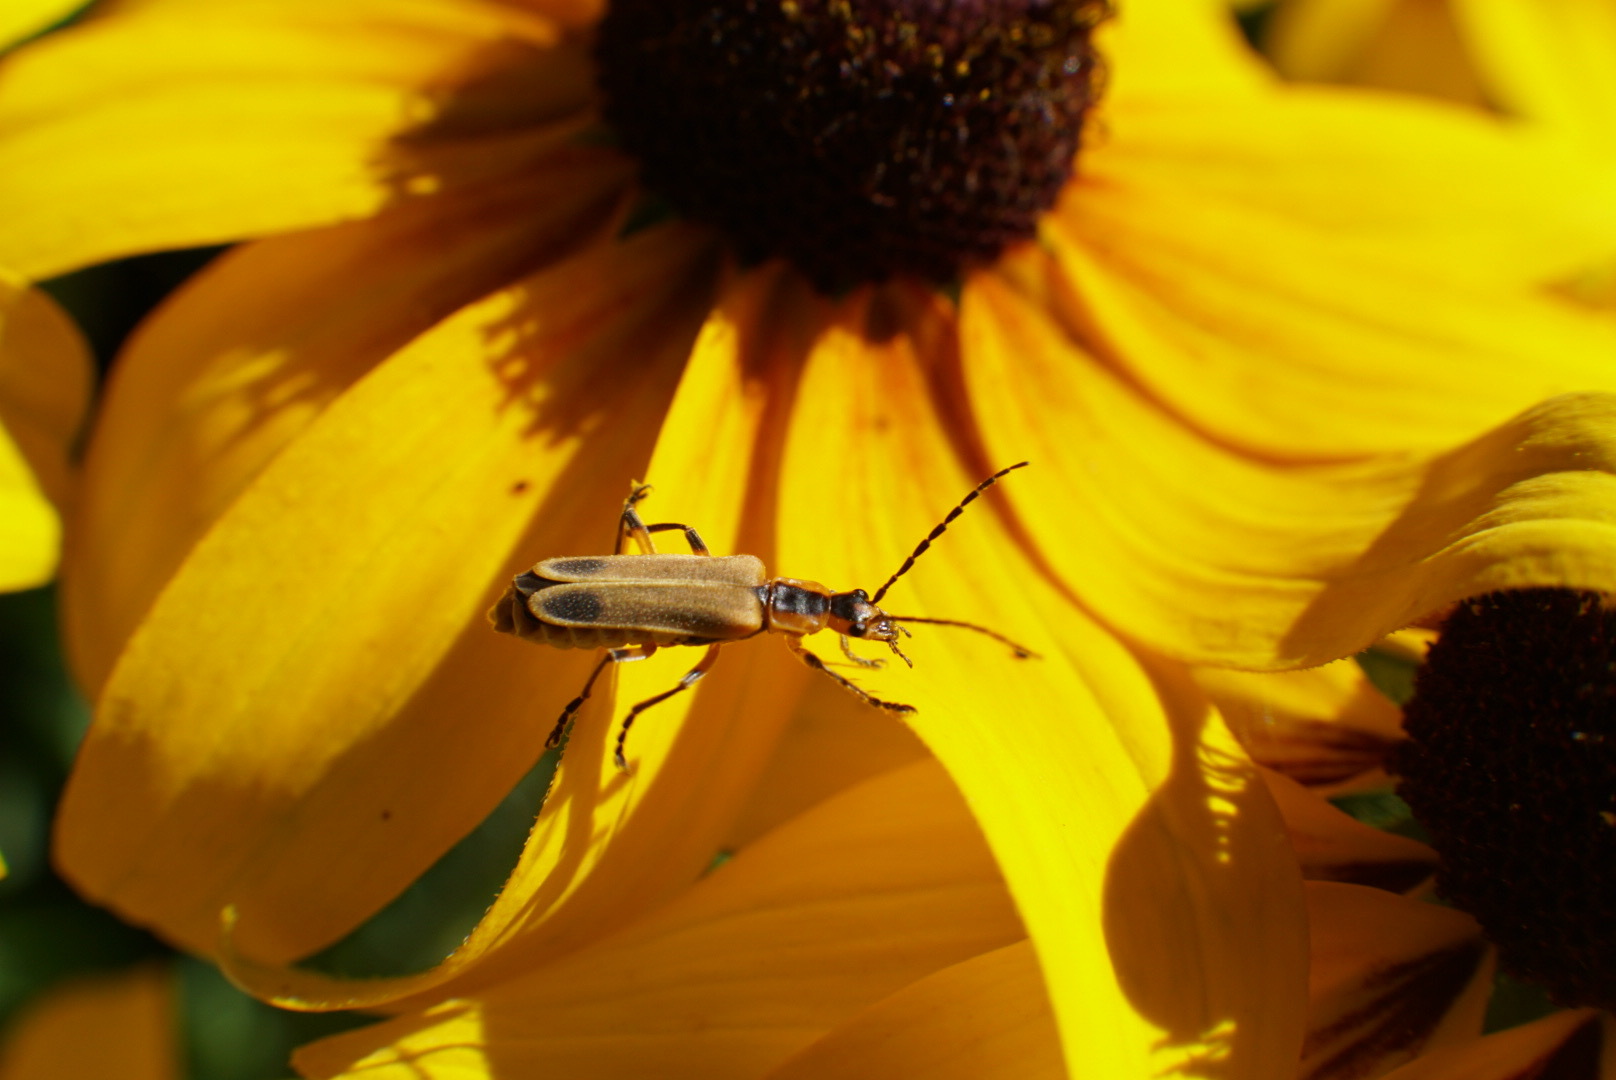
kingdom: Animalia
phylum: Arthropoda
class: Insecta
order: Coleoptera
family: Cantharidae
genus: Chauliognathus
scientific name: Chauliognathus marginatus
